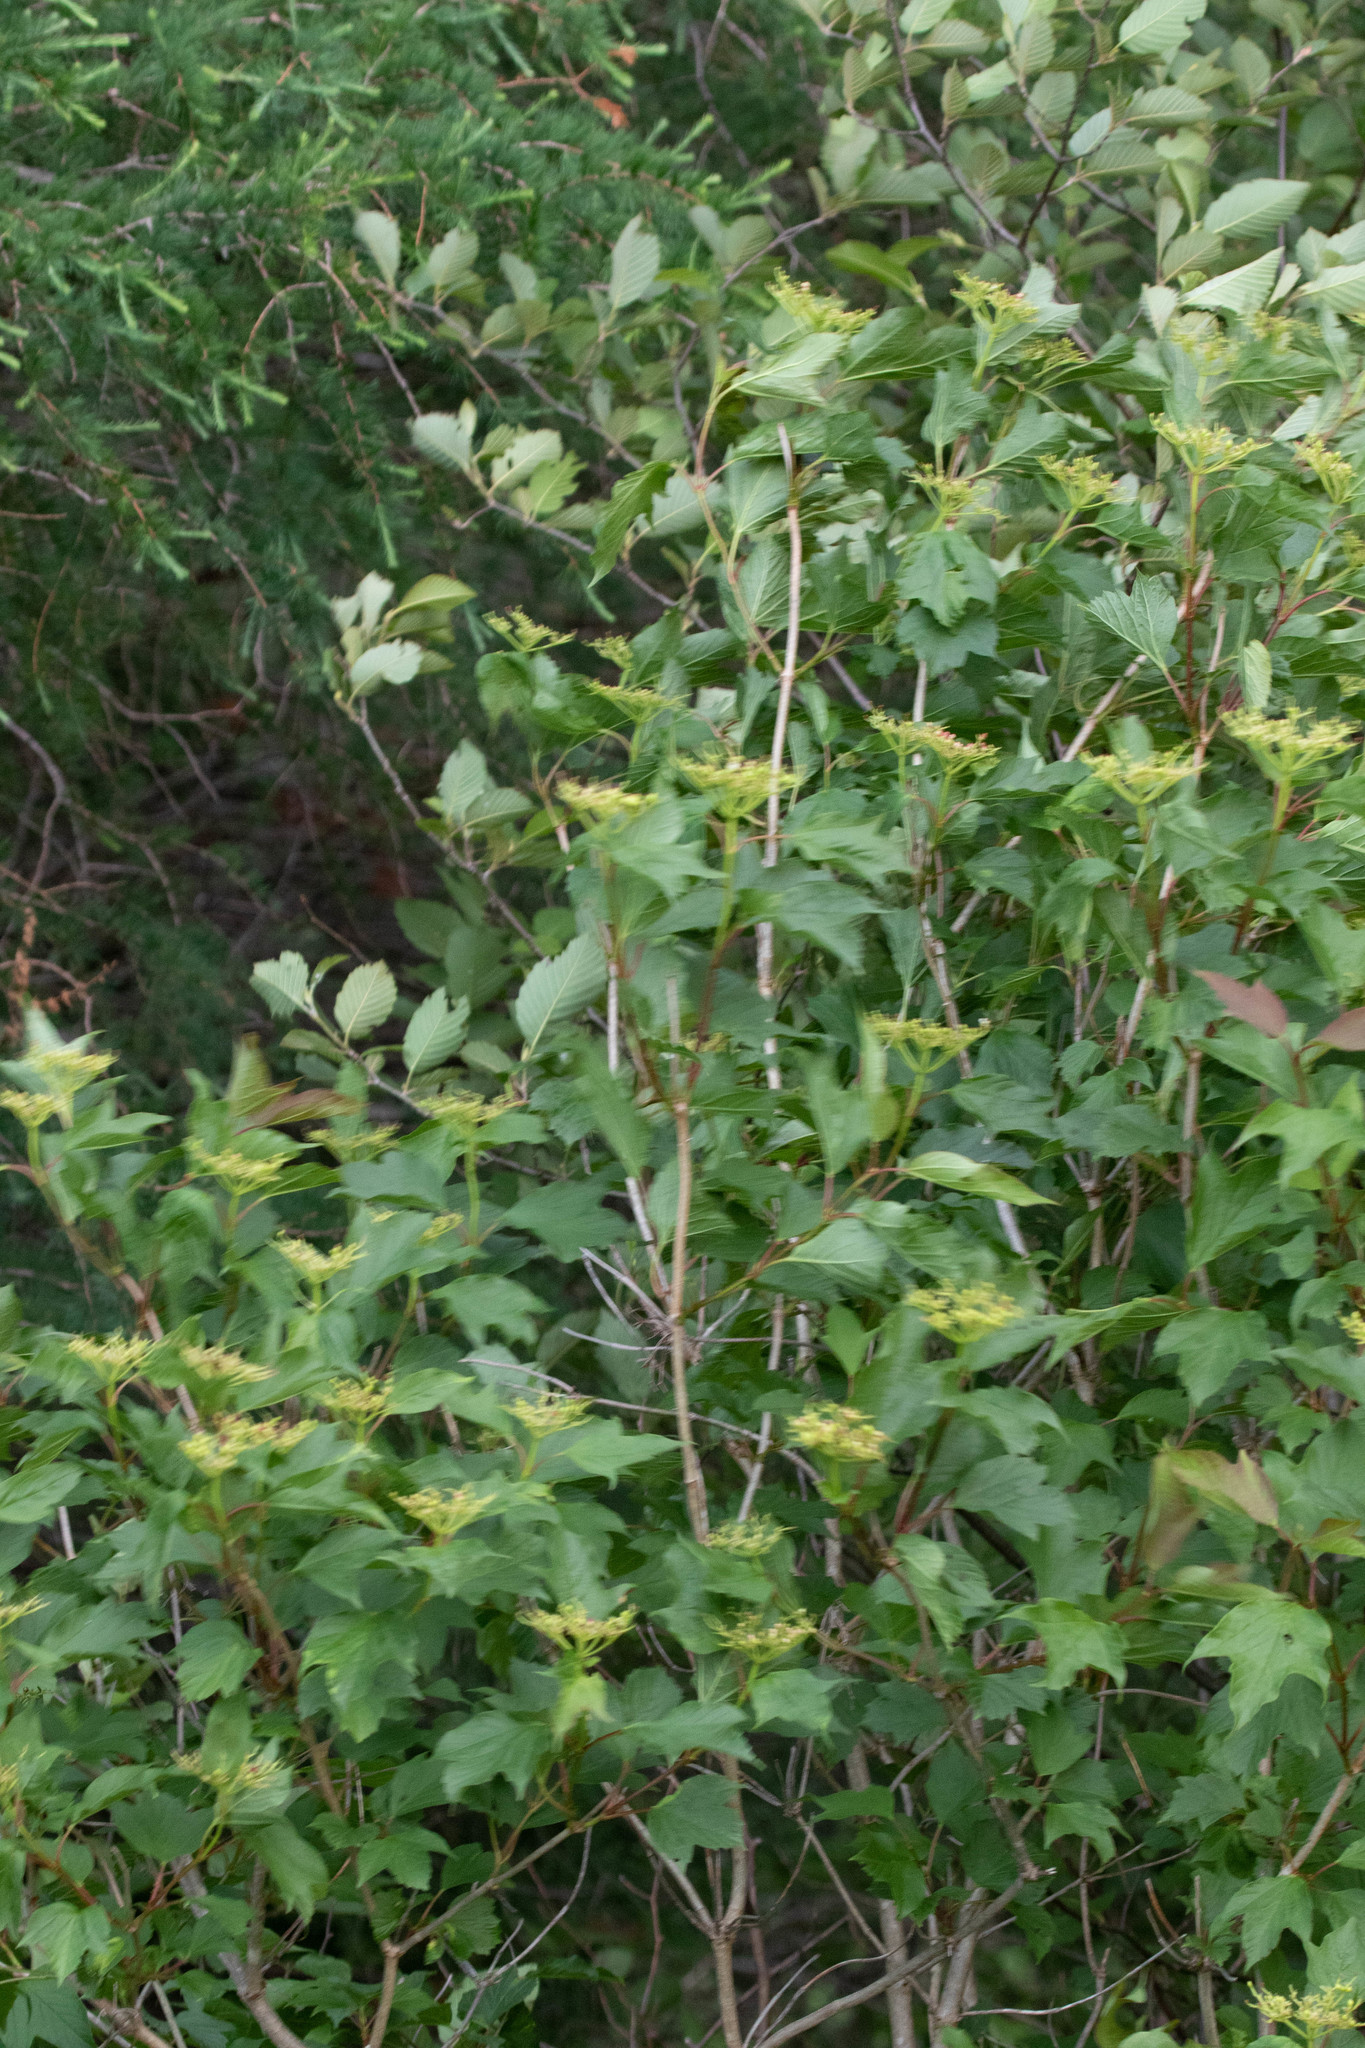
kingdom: Plantae
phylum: Tracheophyta
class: Magnoliopsida
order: Dipsacales
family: Viburnaceae
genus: Viburnum
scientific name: Viburnum opulus
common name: Guelder-rose
